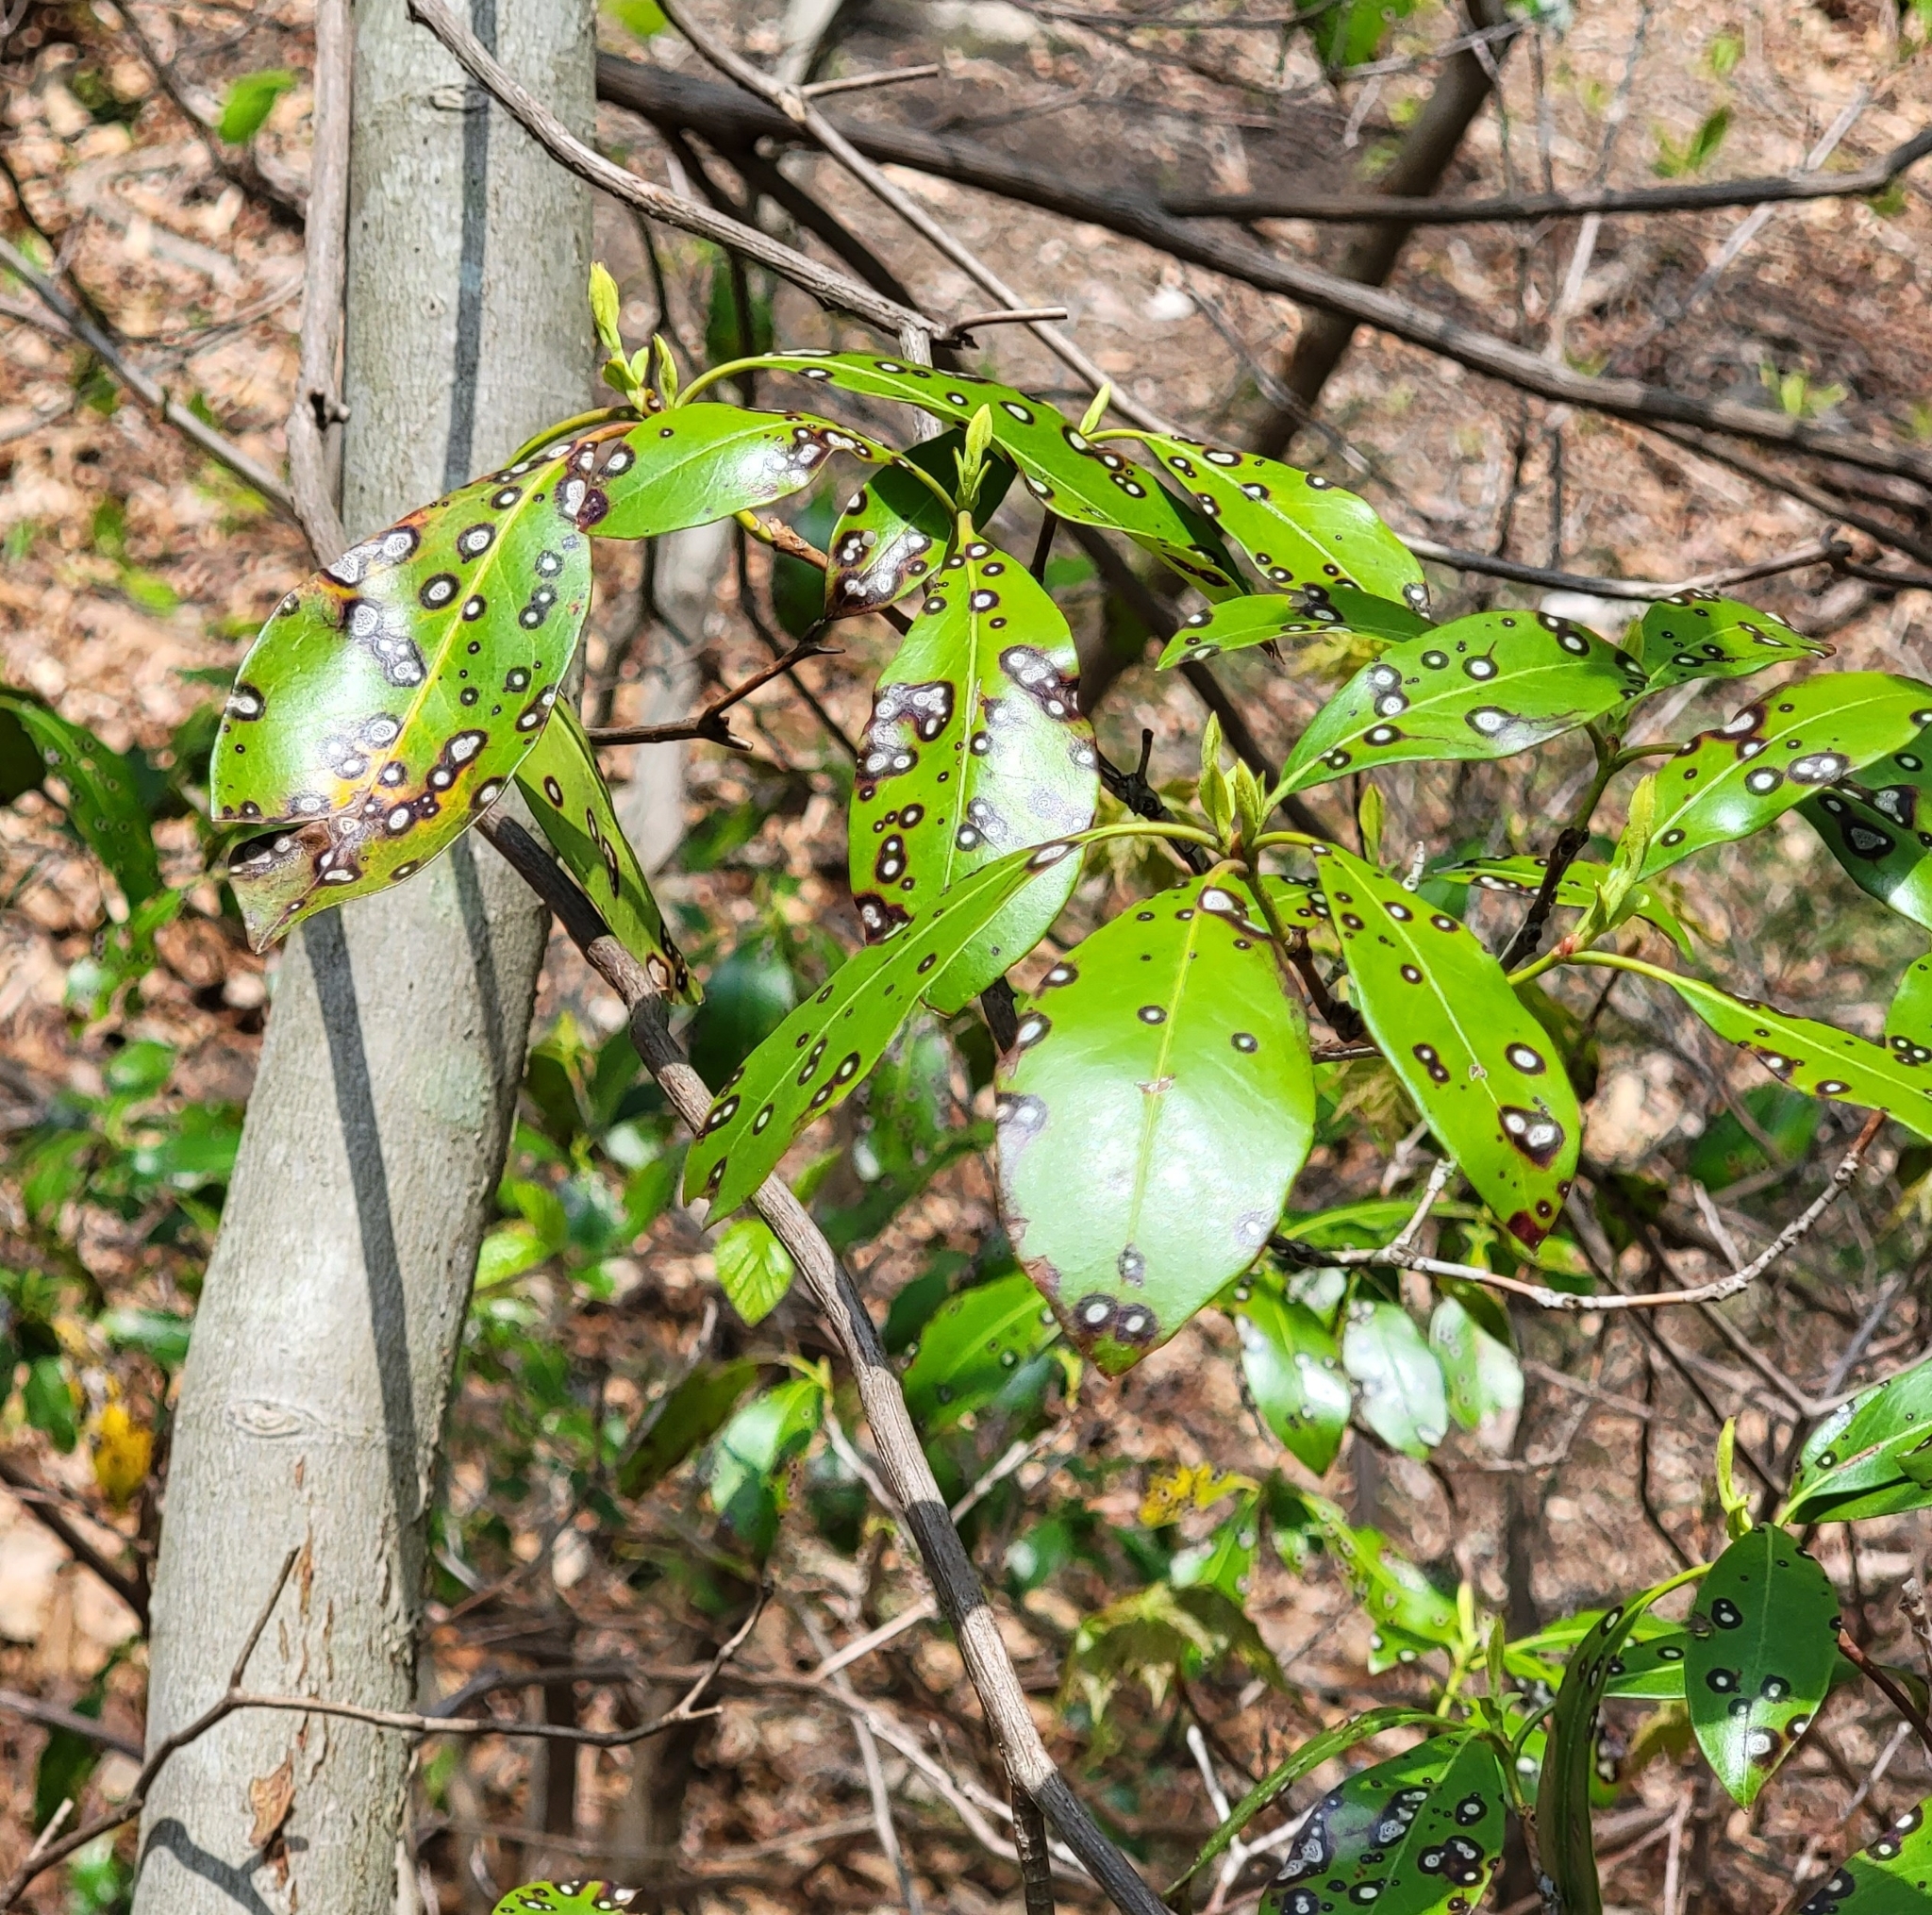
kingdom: Plantae
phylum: Tracheophyta
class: Magnoliopsida
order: Ericales
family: Ericaceae
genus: Kalmia
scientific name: Kalmia latifolia
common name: Mountain-laurel
